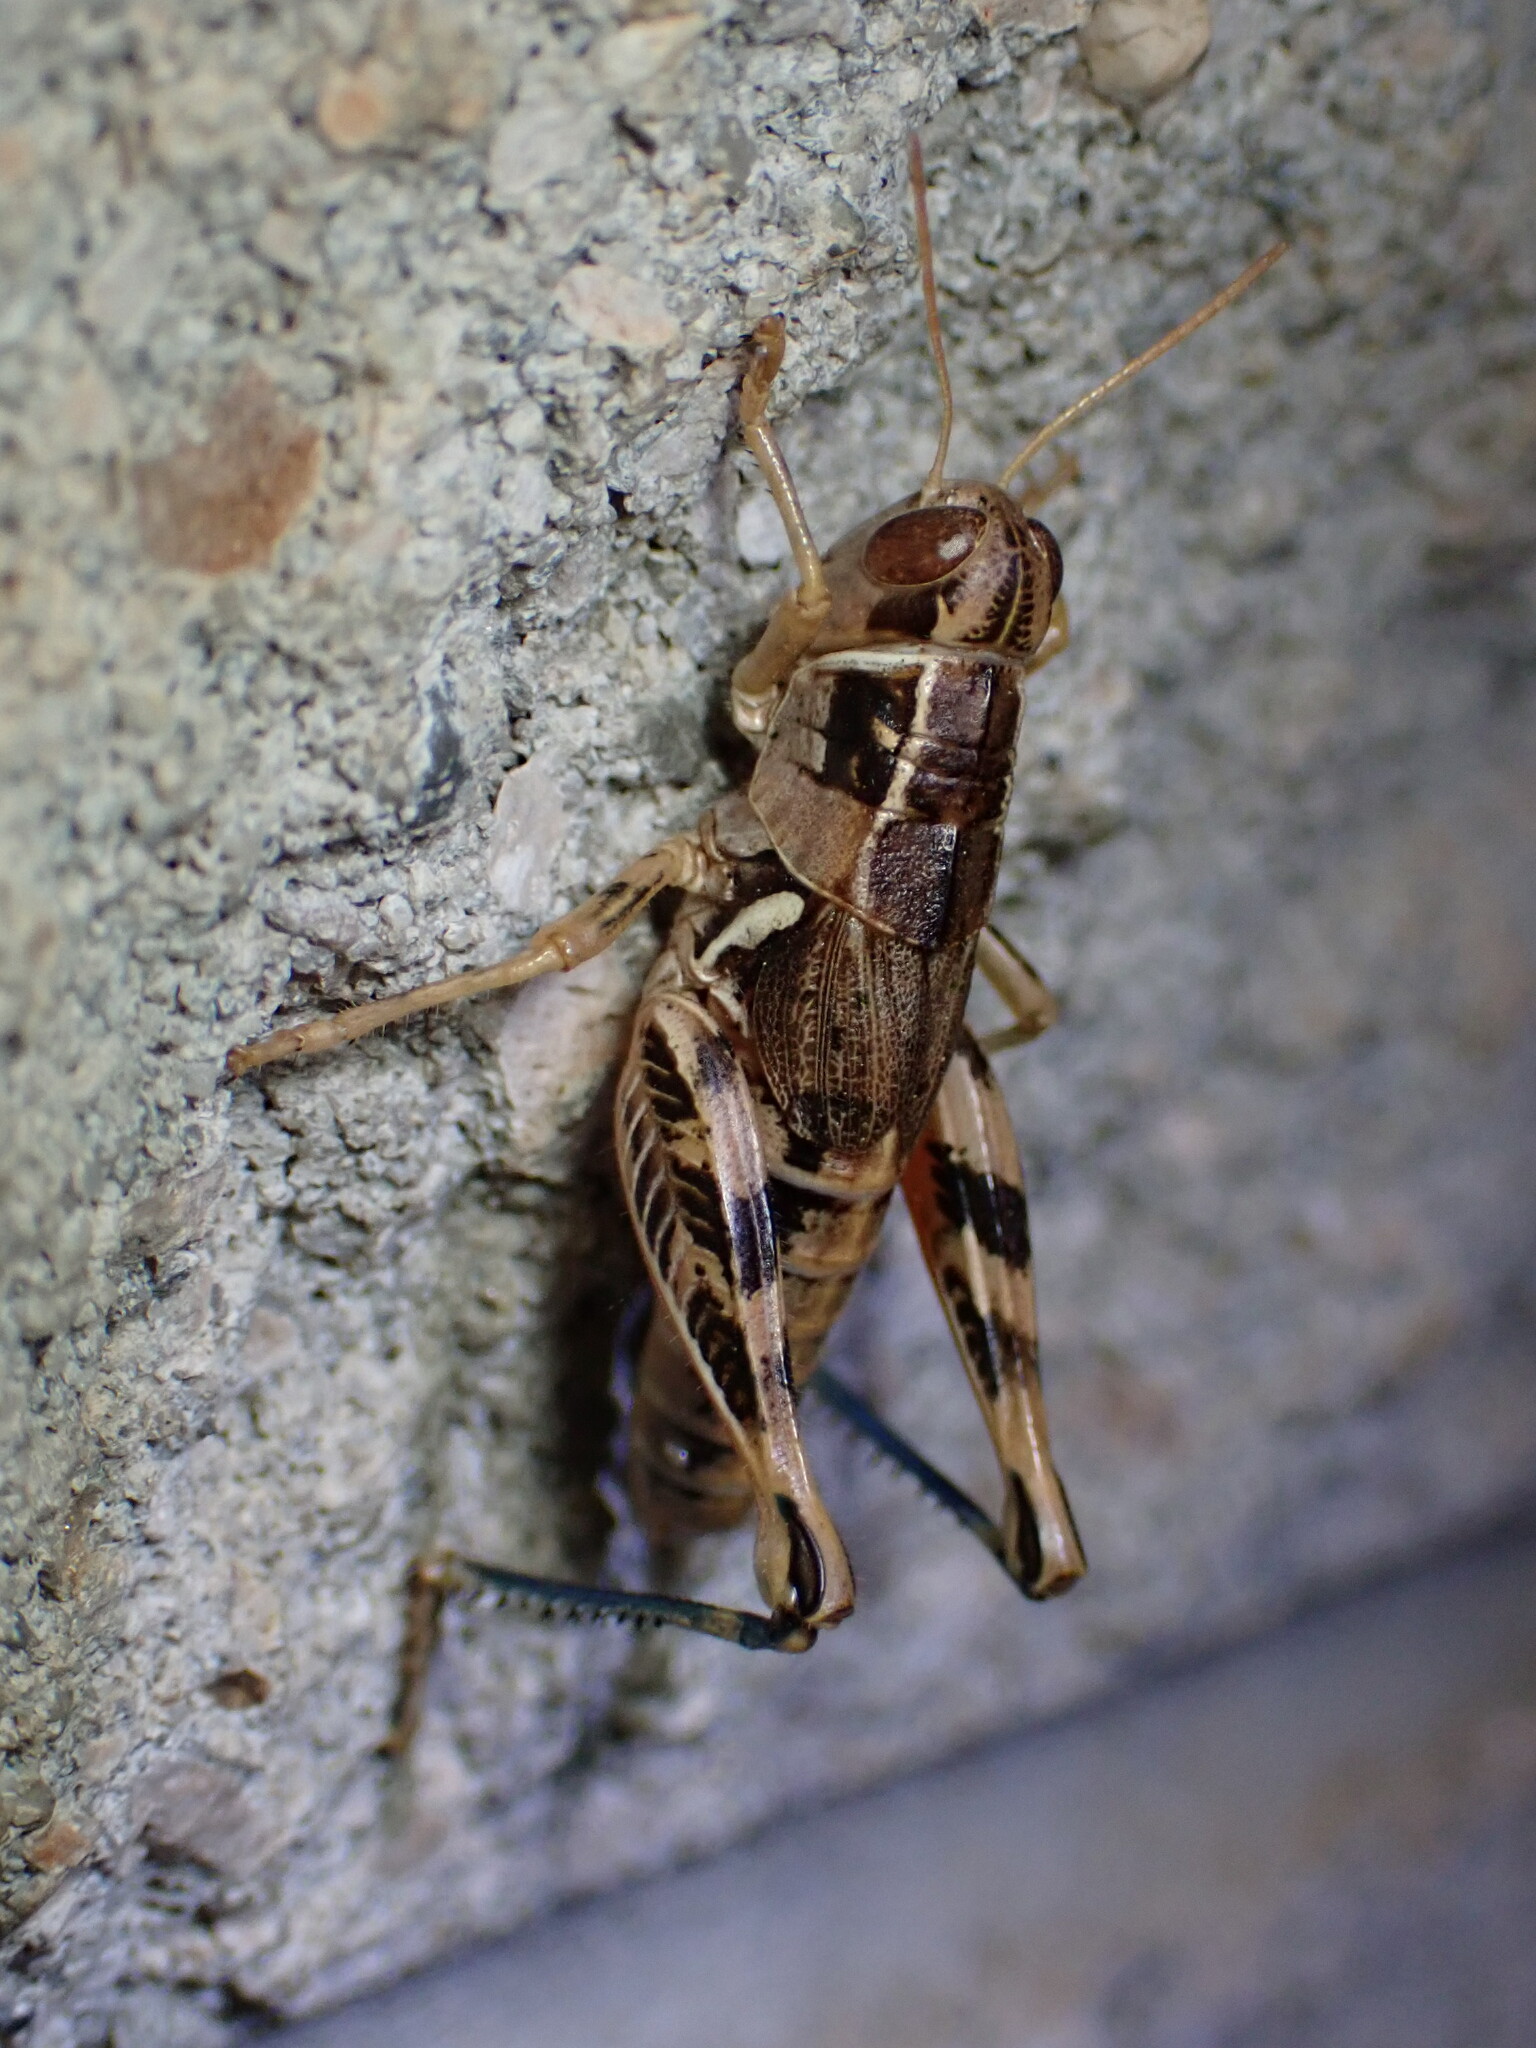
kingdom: Animalia
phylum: Arthropoda
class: Insecta
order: Orthoptera
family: Acrididae
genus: Oedaleonotus
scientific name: Oedaleonotus enigma
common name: Valley grasshopper
